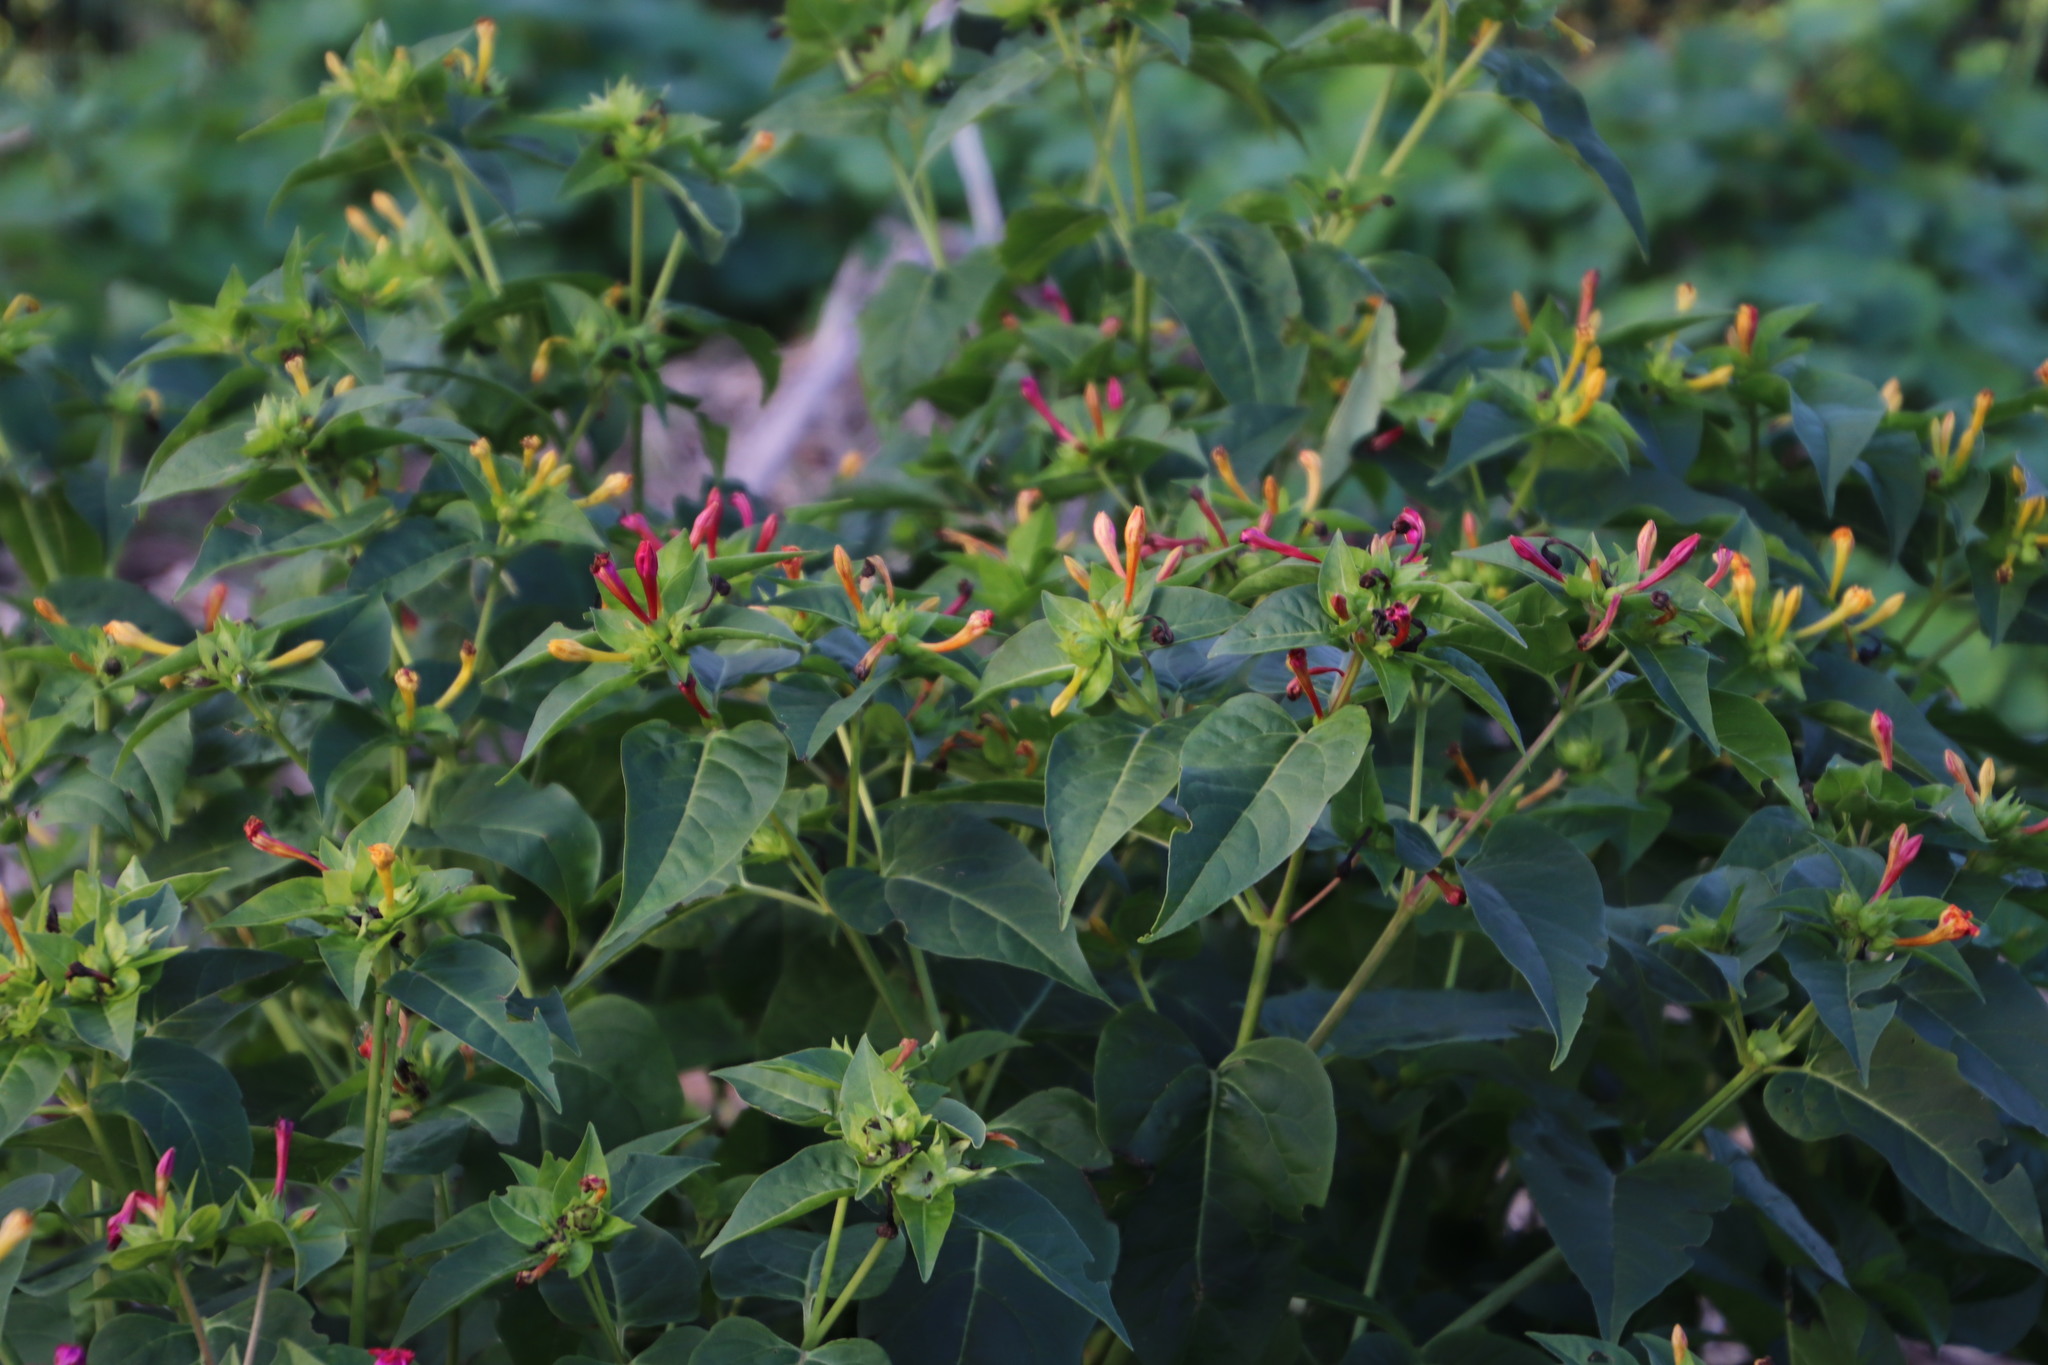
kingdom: Plantae
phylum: Tracheophyta
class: Magnoliopsida
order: Caryophyllales
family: Nyctaginaceae
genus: Mirabilis
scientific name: Mirabilis jalapa
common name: Marvel-of-peru
